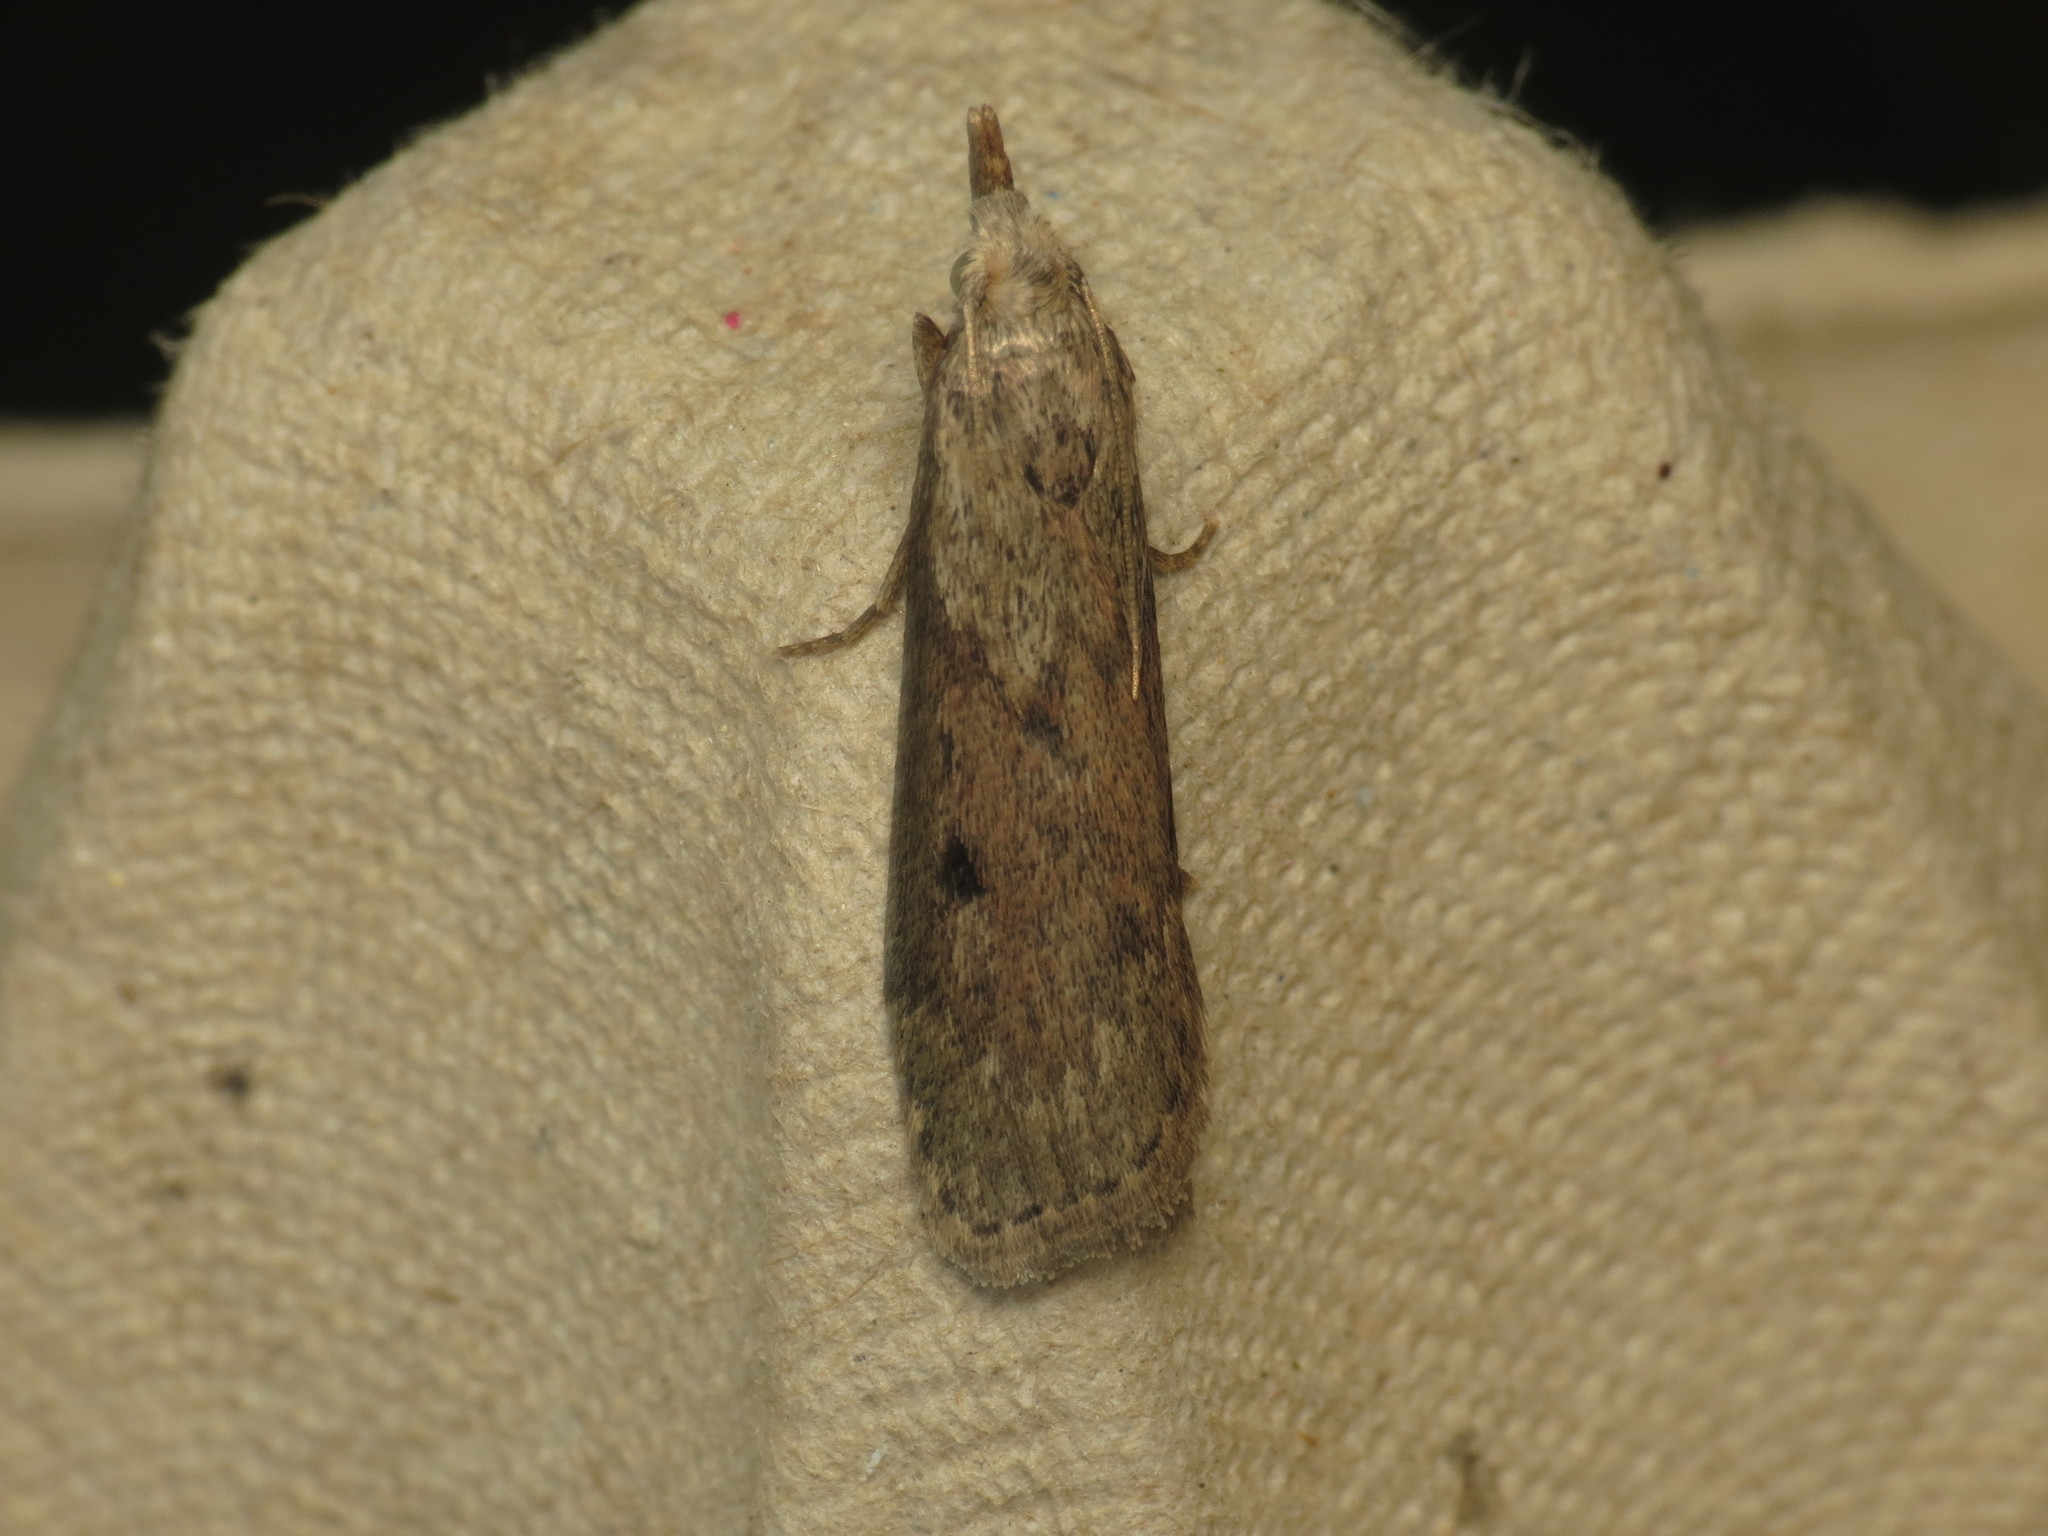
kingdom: Animalia
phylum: Arthropoda
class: Insecta
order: Lepidoptera
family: Pyralidae
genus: Aphomia
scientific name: Aphomia sociella
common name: Bee moth
